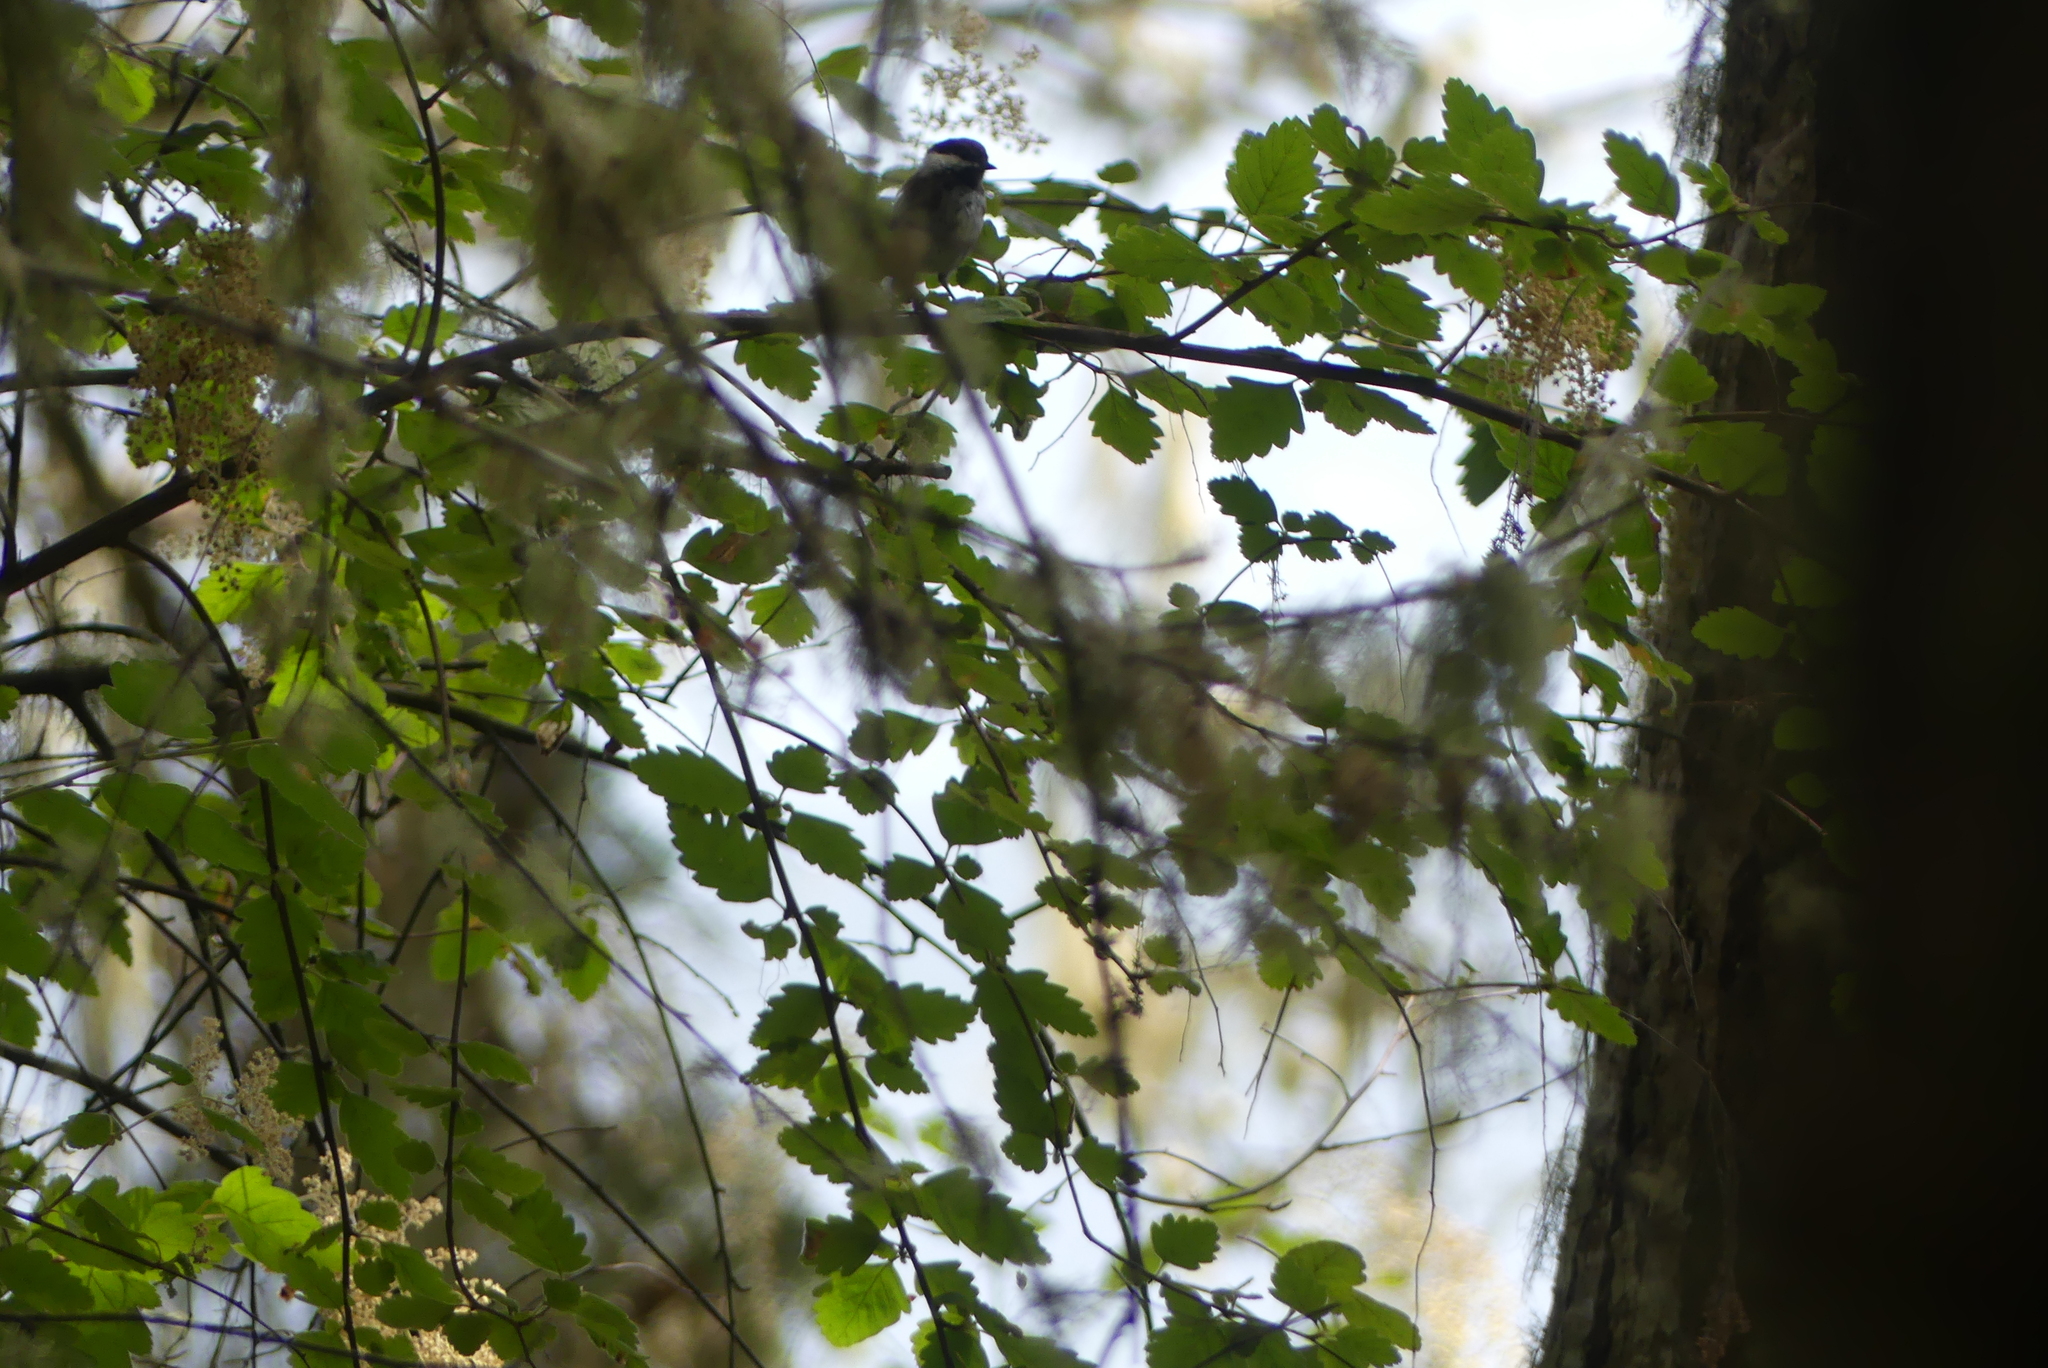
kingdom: Animalia
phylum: Chordata
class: Aves
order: Passeriformes
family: Paridae
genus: Poecile
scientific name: Poecile rufescens
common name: Chestnut-backed chickadee
